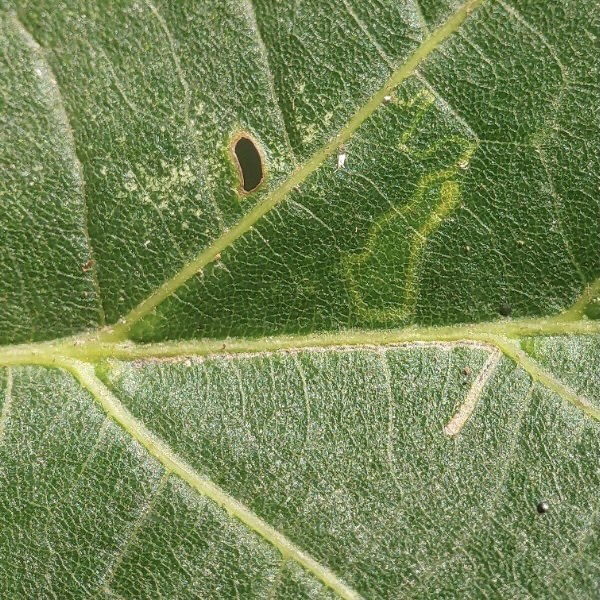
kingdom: Animalia
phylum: Arthropoda
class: Insecta
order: Lepidoptera
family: Bucculatricidae
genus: Bucculatrix
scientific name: Bucculatrix improvisa
